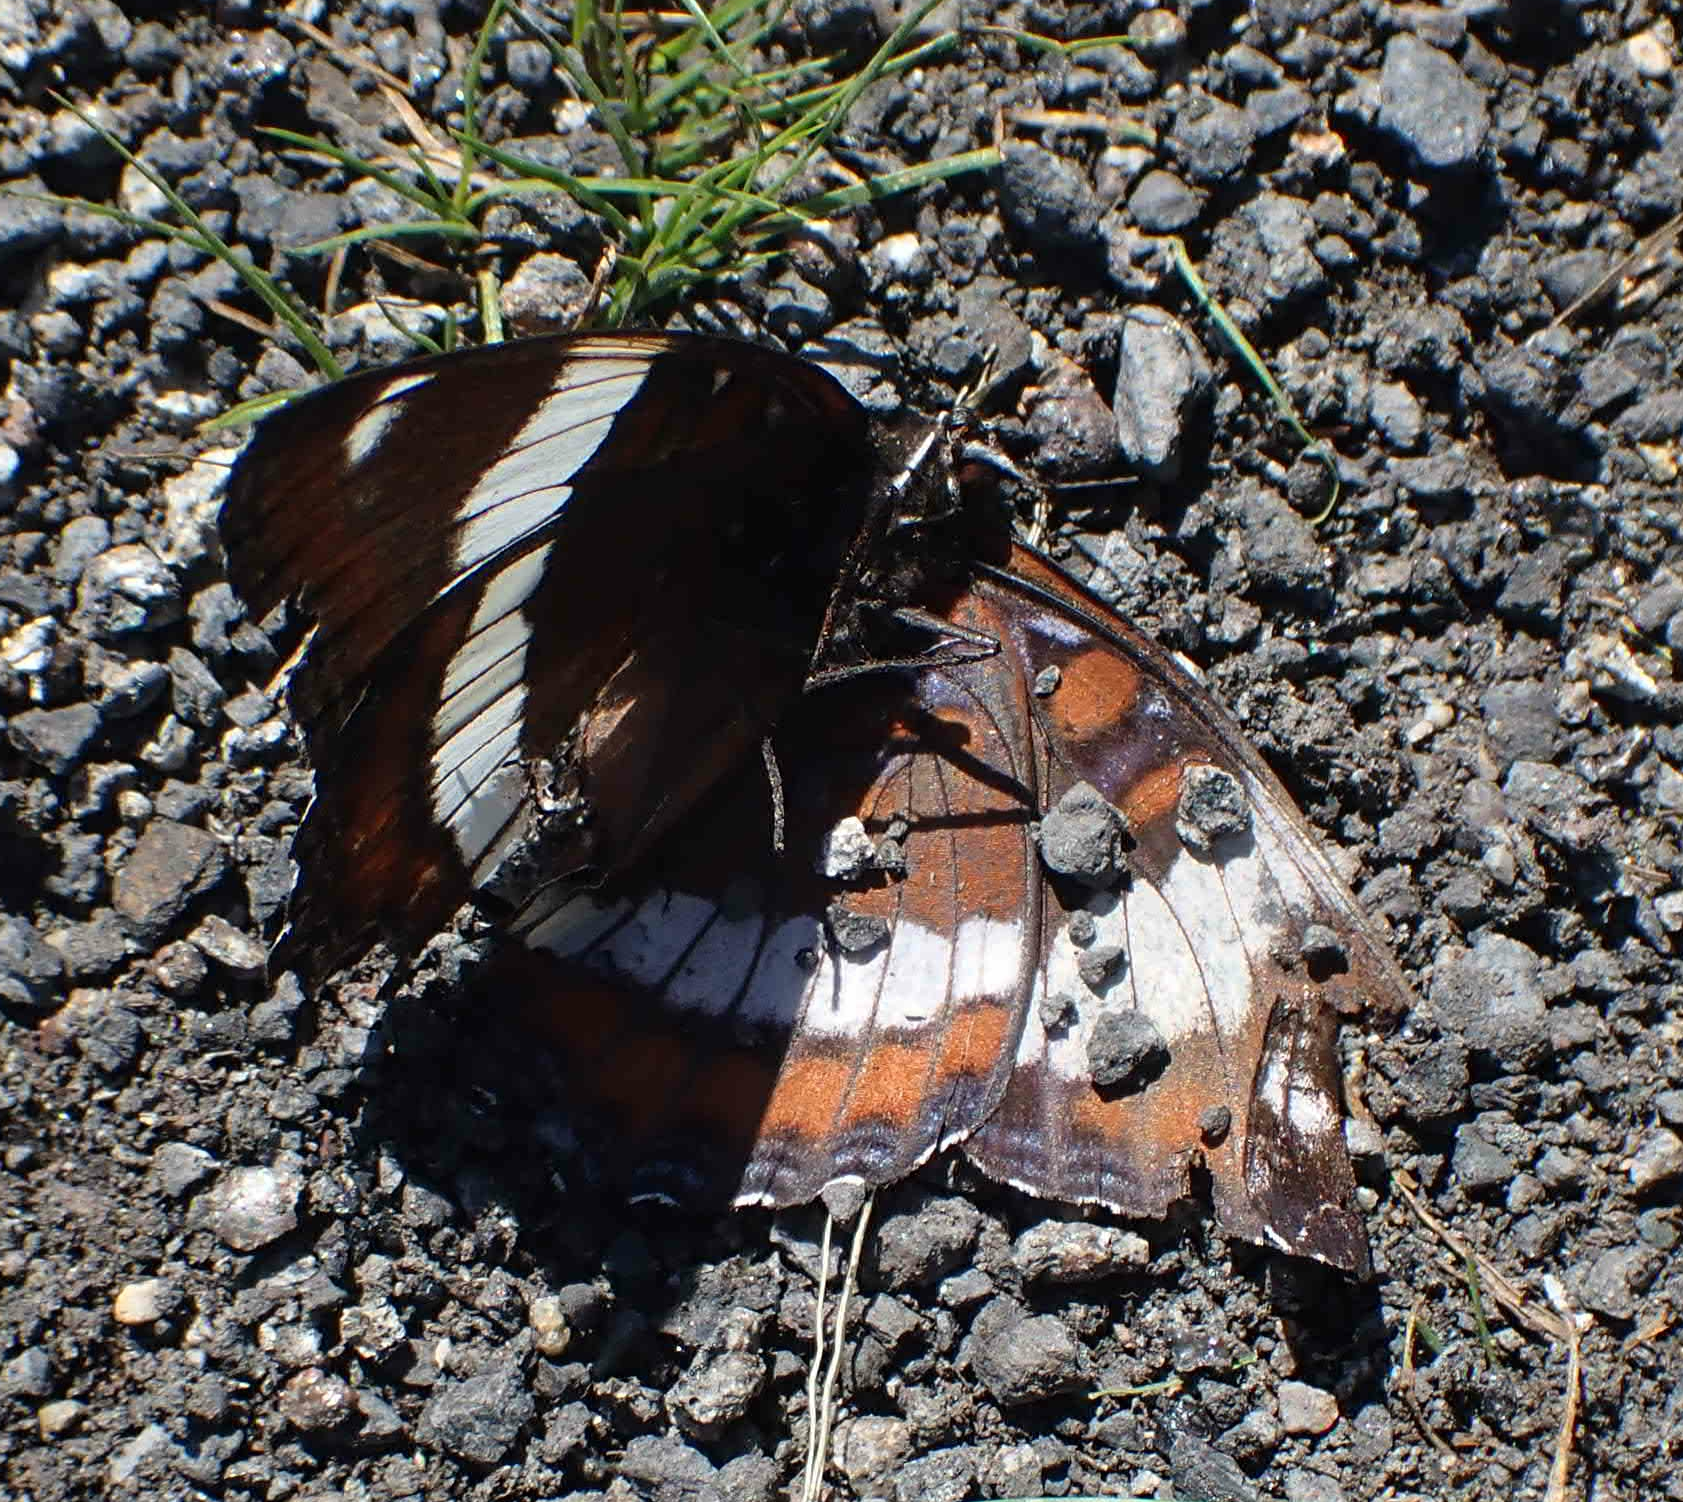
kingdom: Animalia
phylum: Arthropoda
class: Insecta
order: Lepidoptera
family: Nymphalidae
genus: Limenitis
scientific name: Limenitis arthemis
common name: Red-spotted admiral
